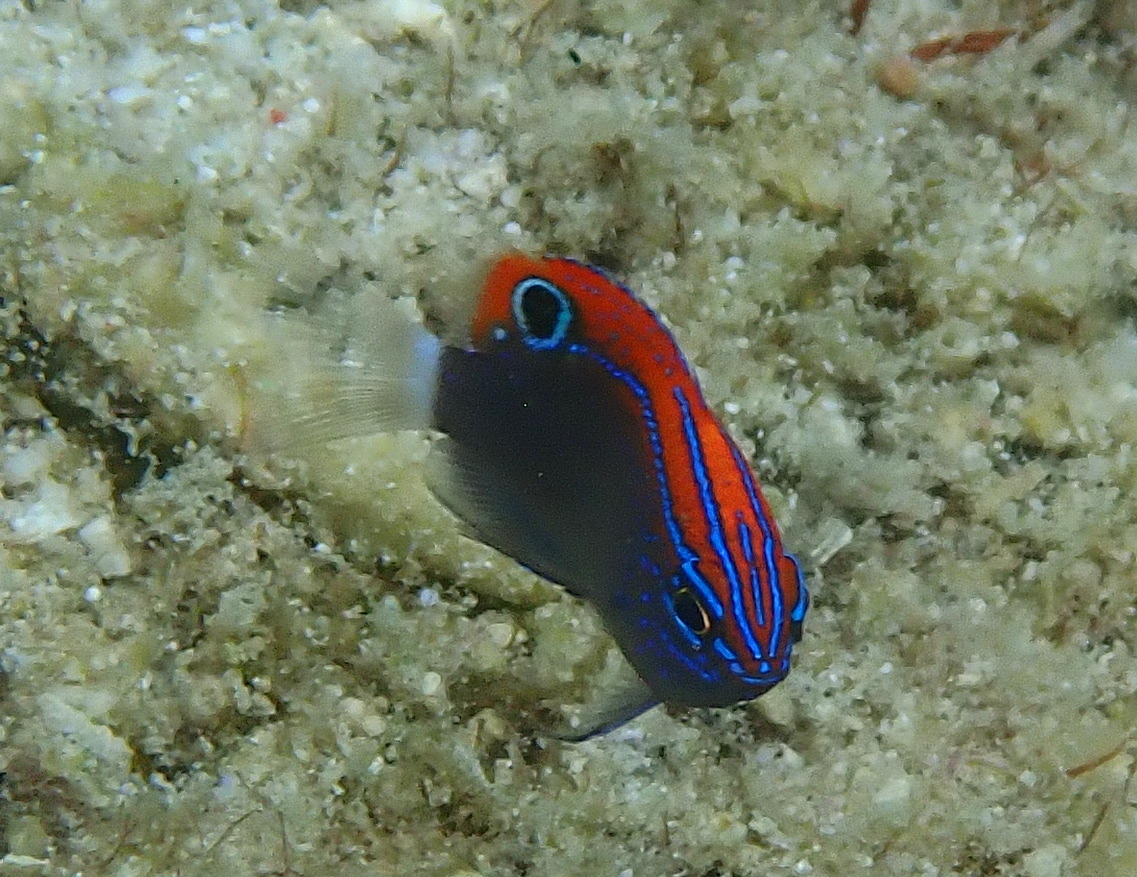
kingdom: Animalia
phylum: Chordata
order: Perciformes
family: Pomacentridae
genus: Pomacentrus
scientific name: Pomacentrus bankanensis
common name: Speckled damsel
